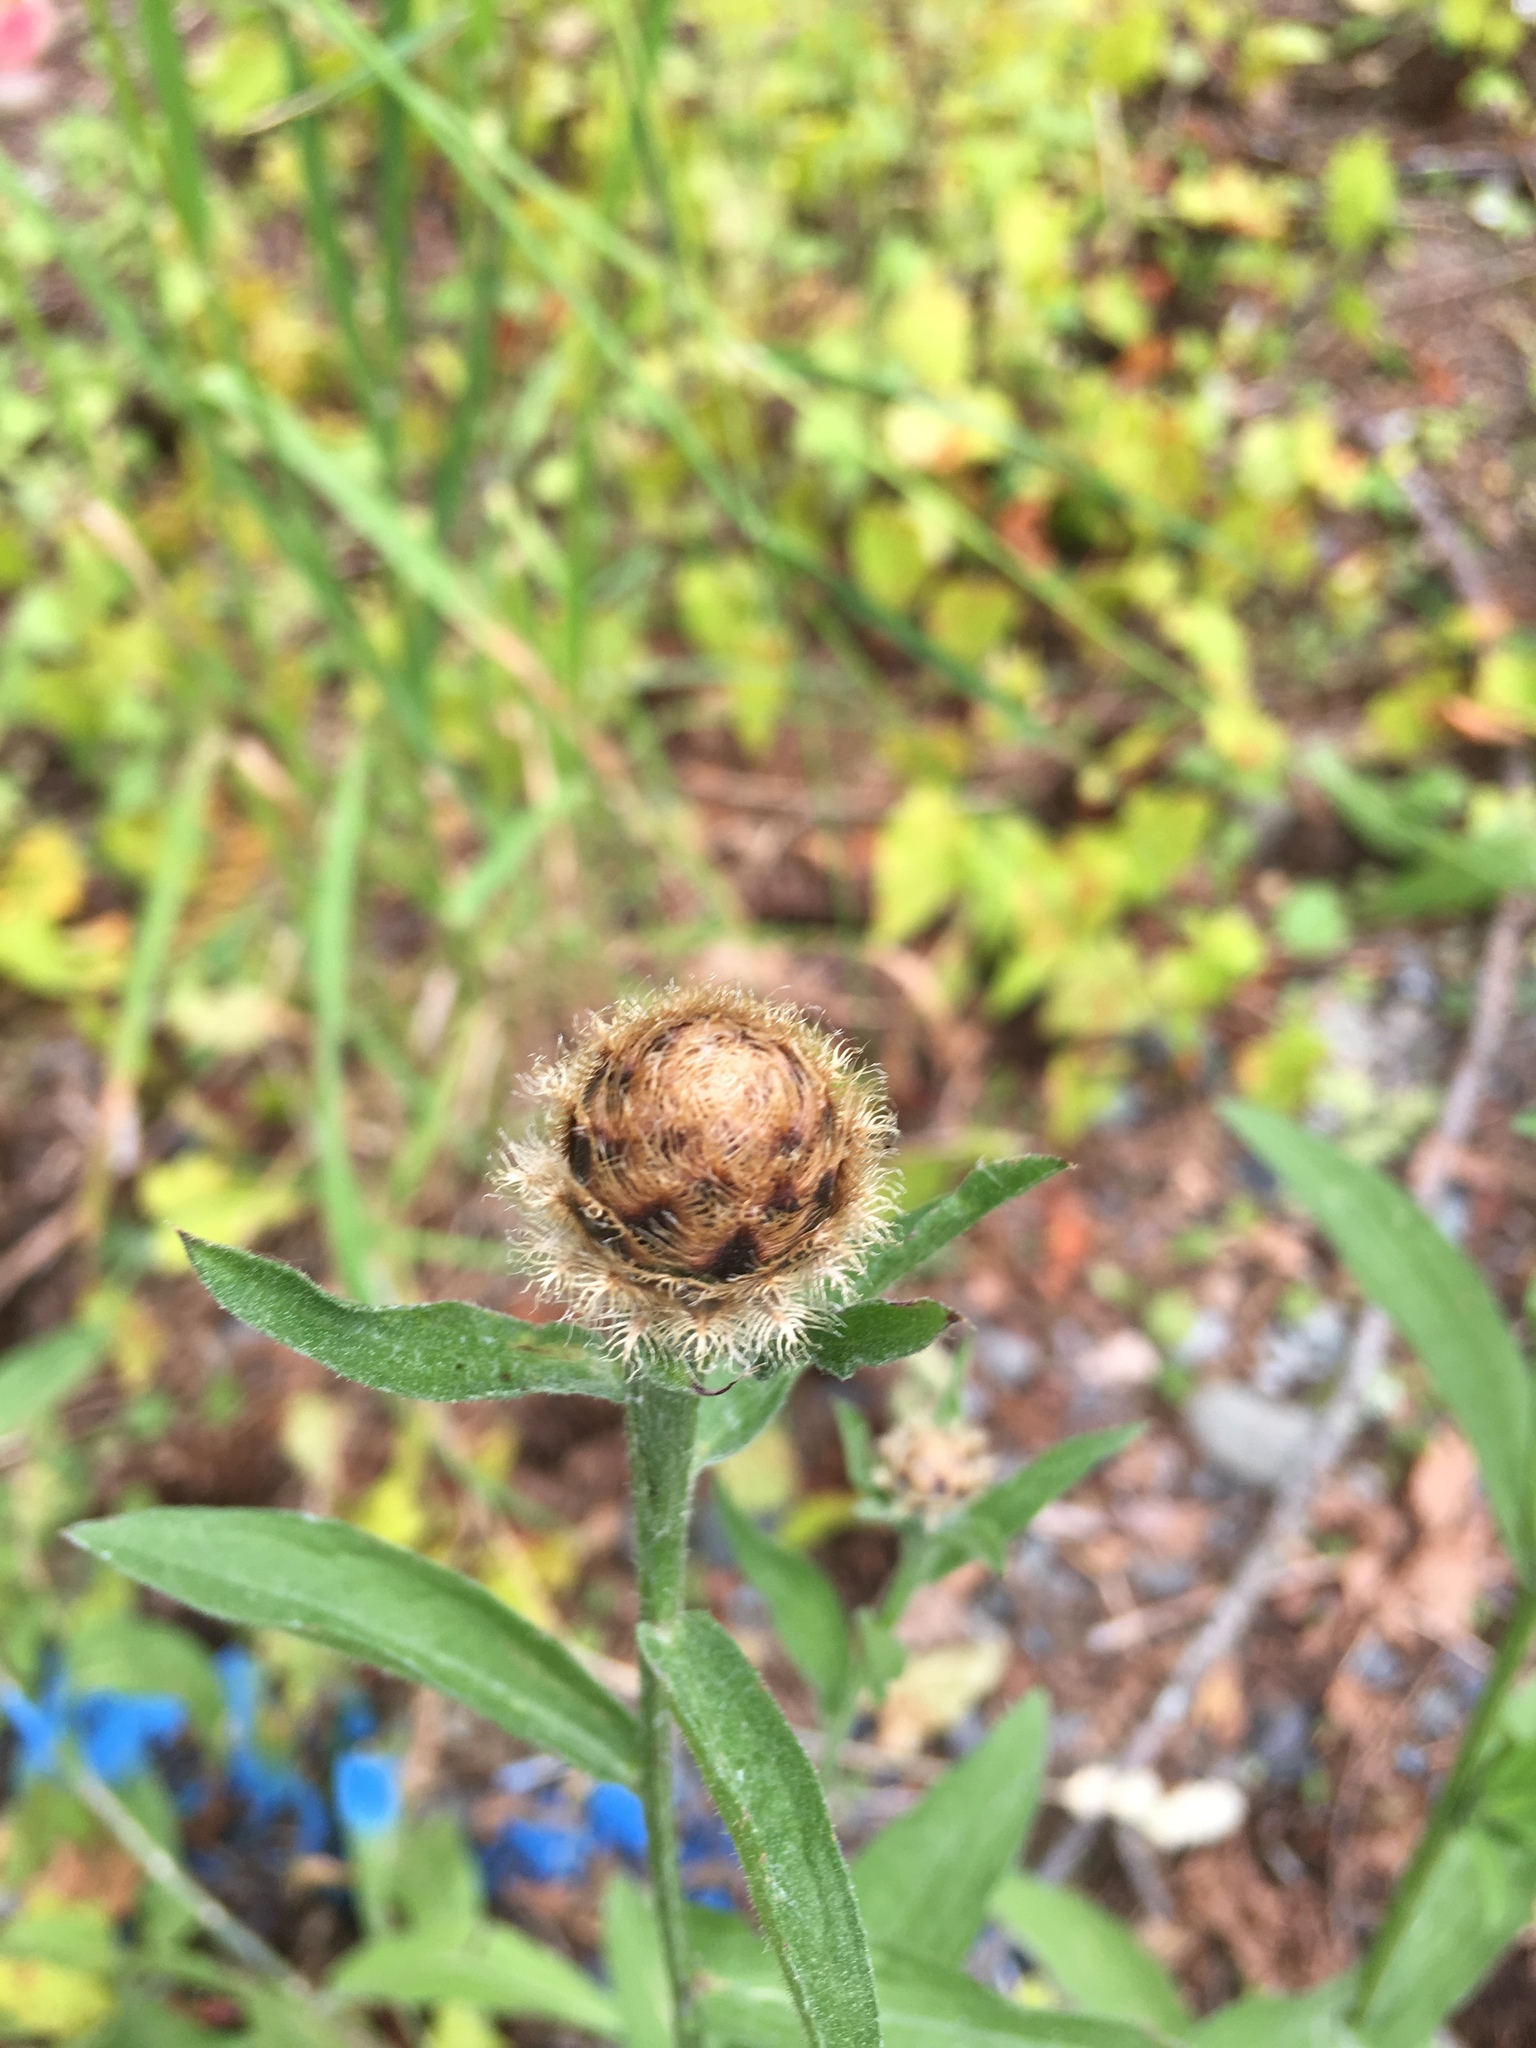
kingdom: Plantae
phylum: Tracheophyta
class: Magnoliopsida
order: Asterales
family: Asteraceae
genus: Centaurea
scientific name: Centaurea gerstlaueri
